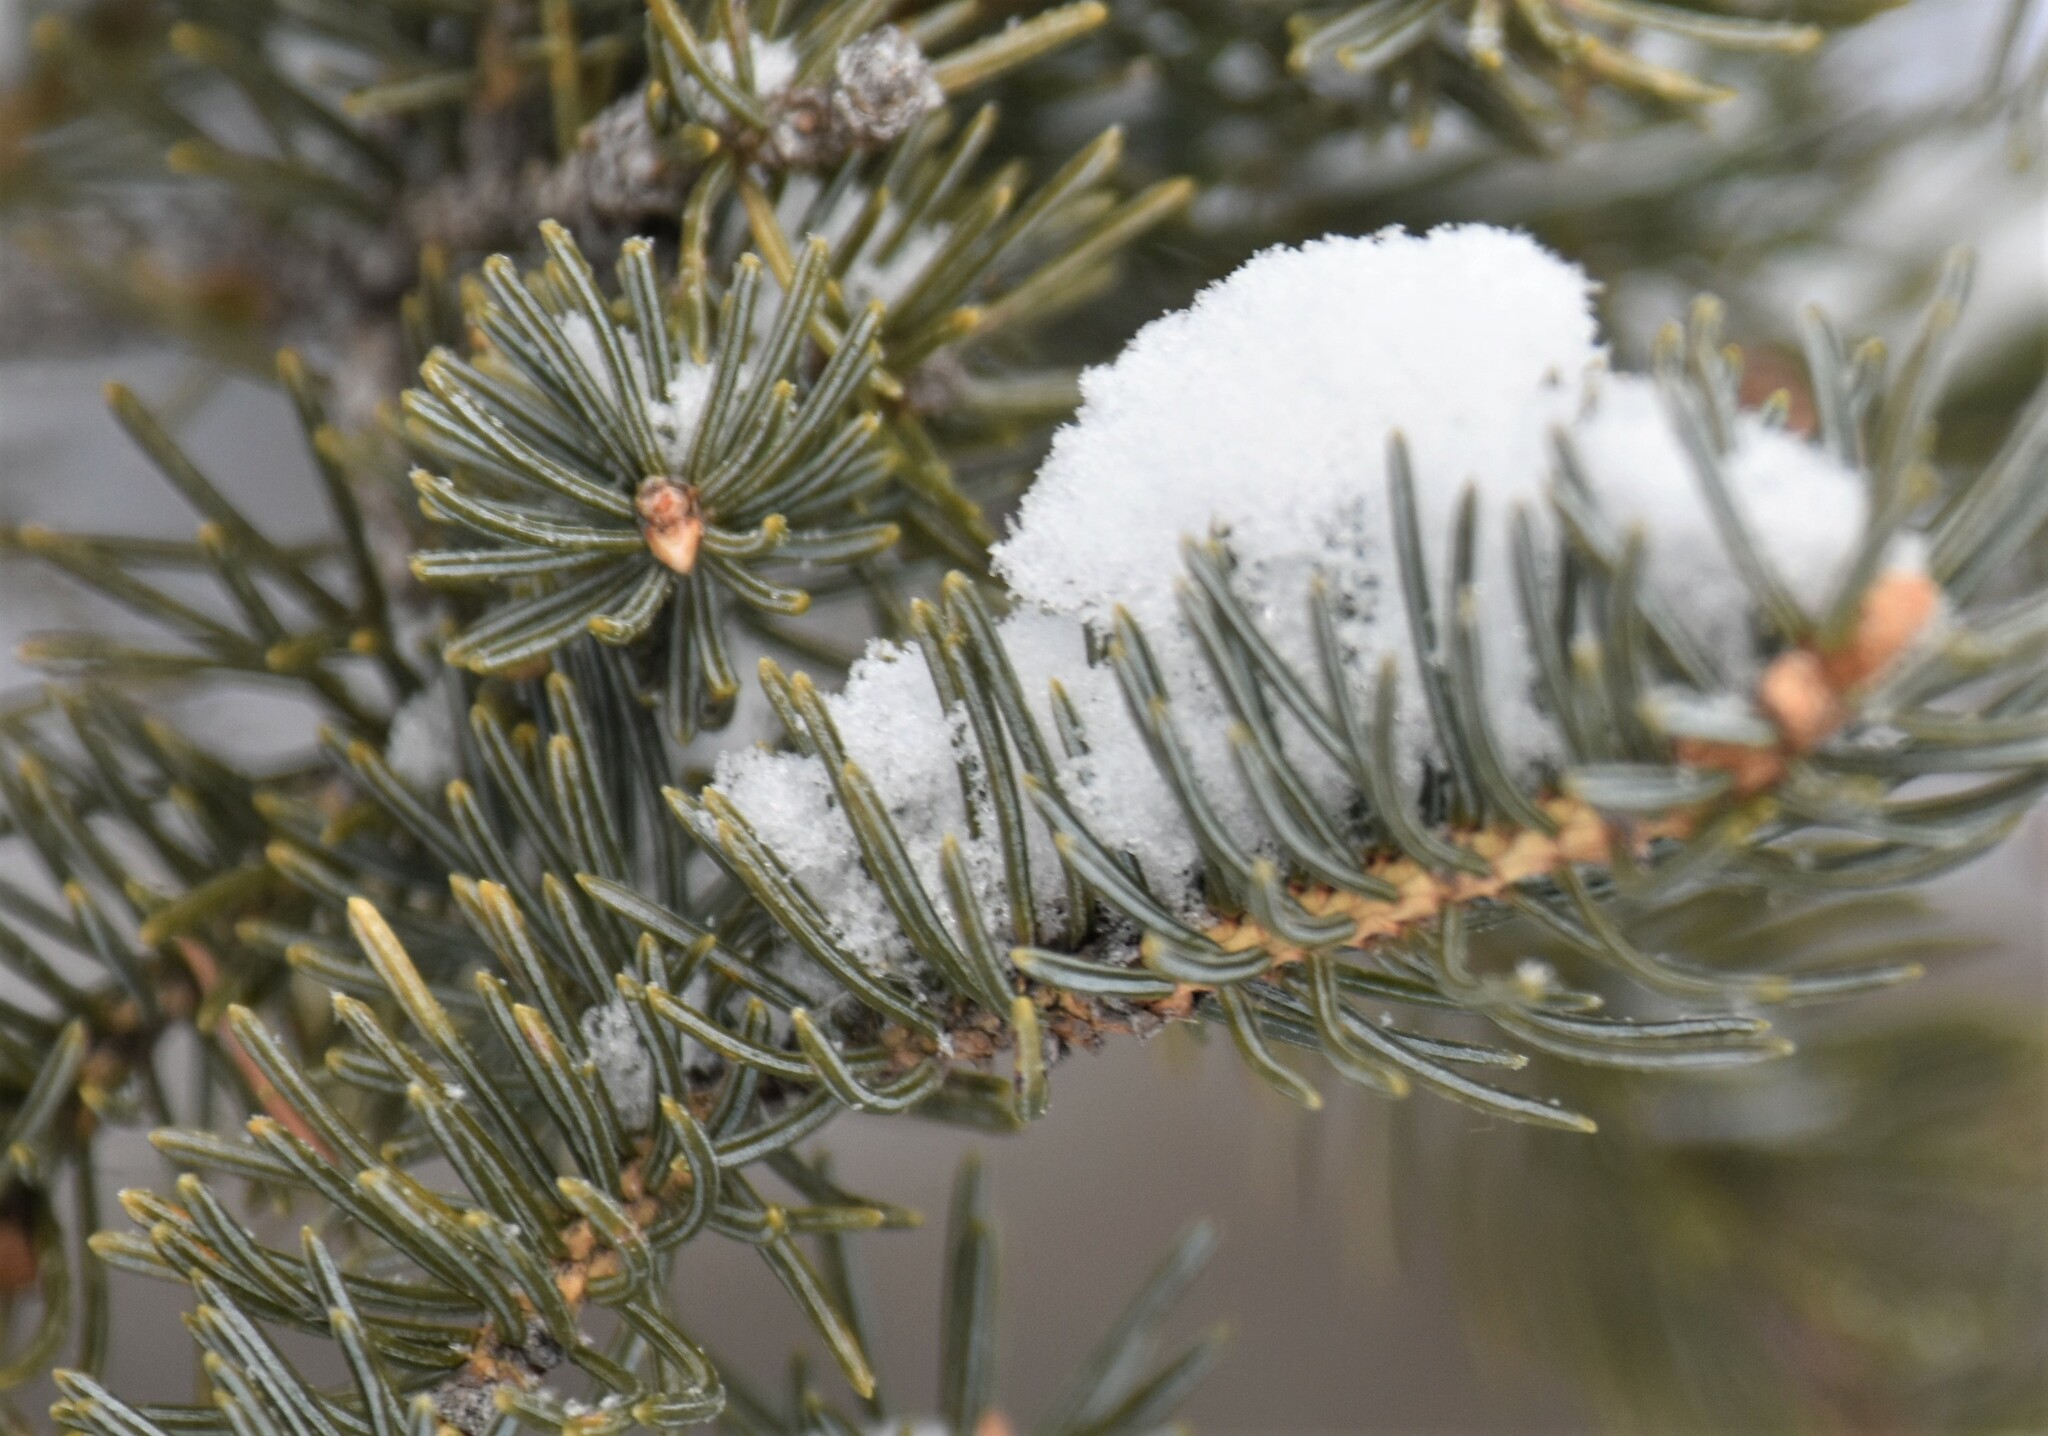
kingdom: Plantae
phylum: Tracheophyta
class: Pinopsida
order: Pinales
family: Pinaceae
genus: Picea
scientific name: Picea glauca
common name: White spruce
